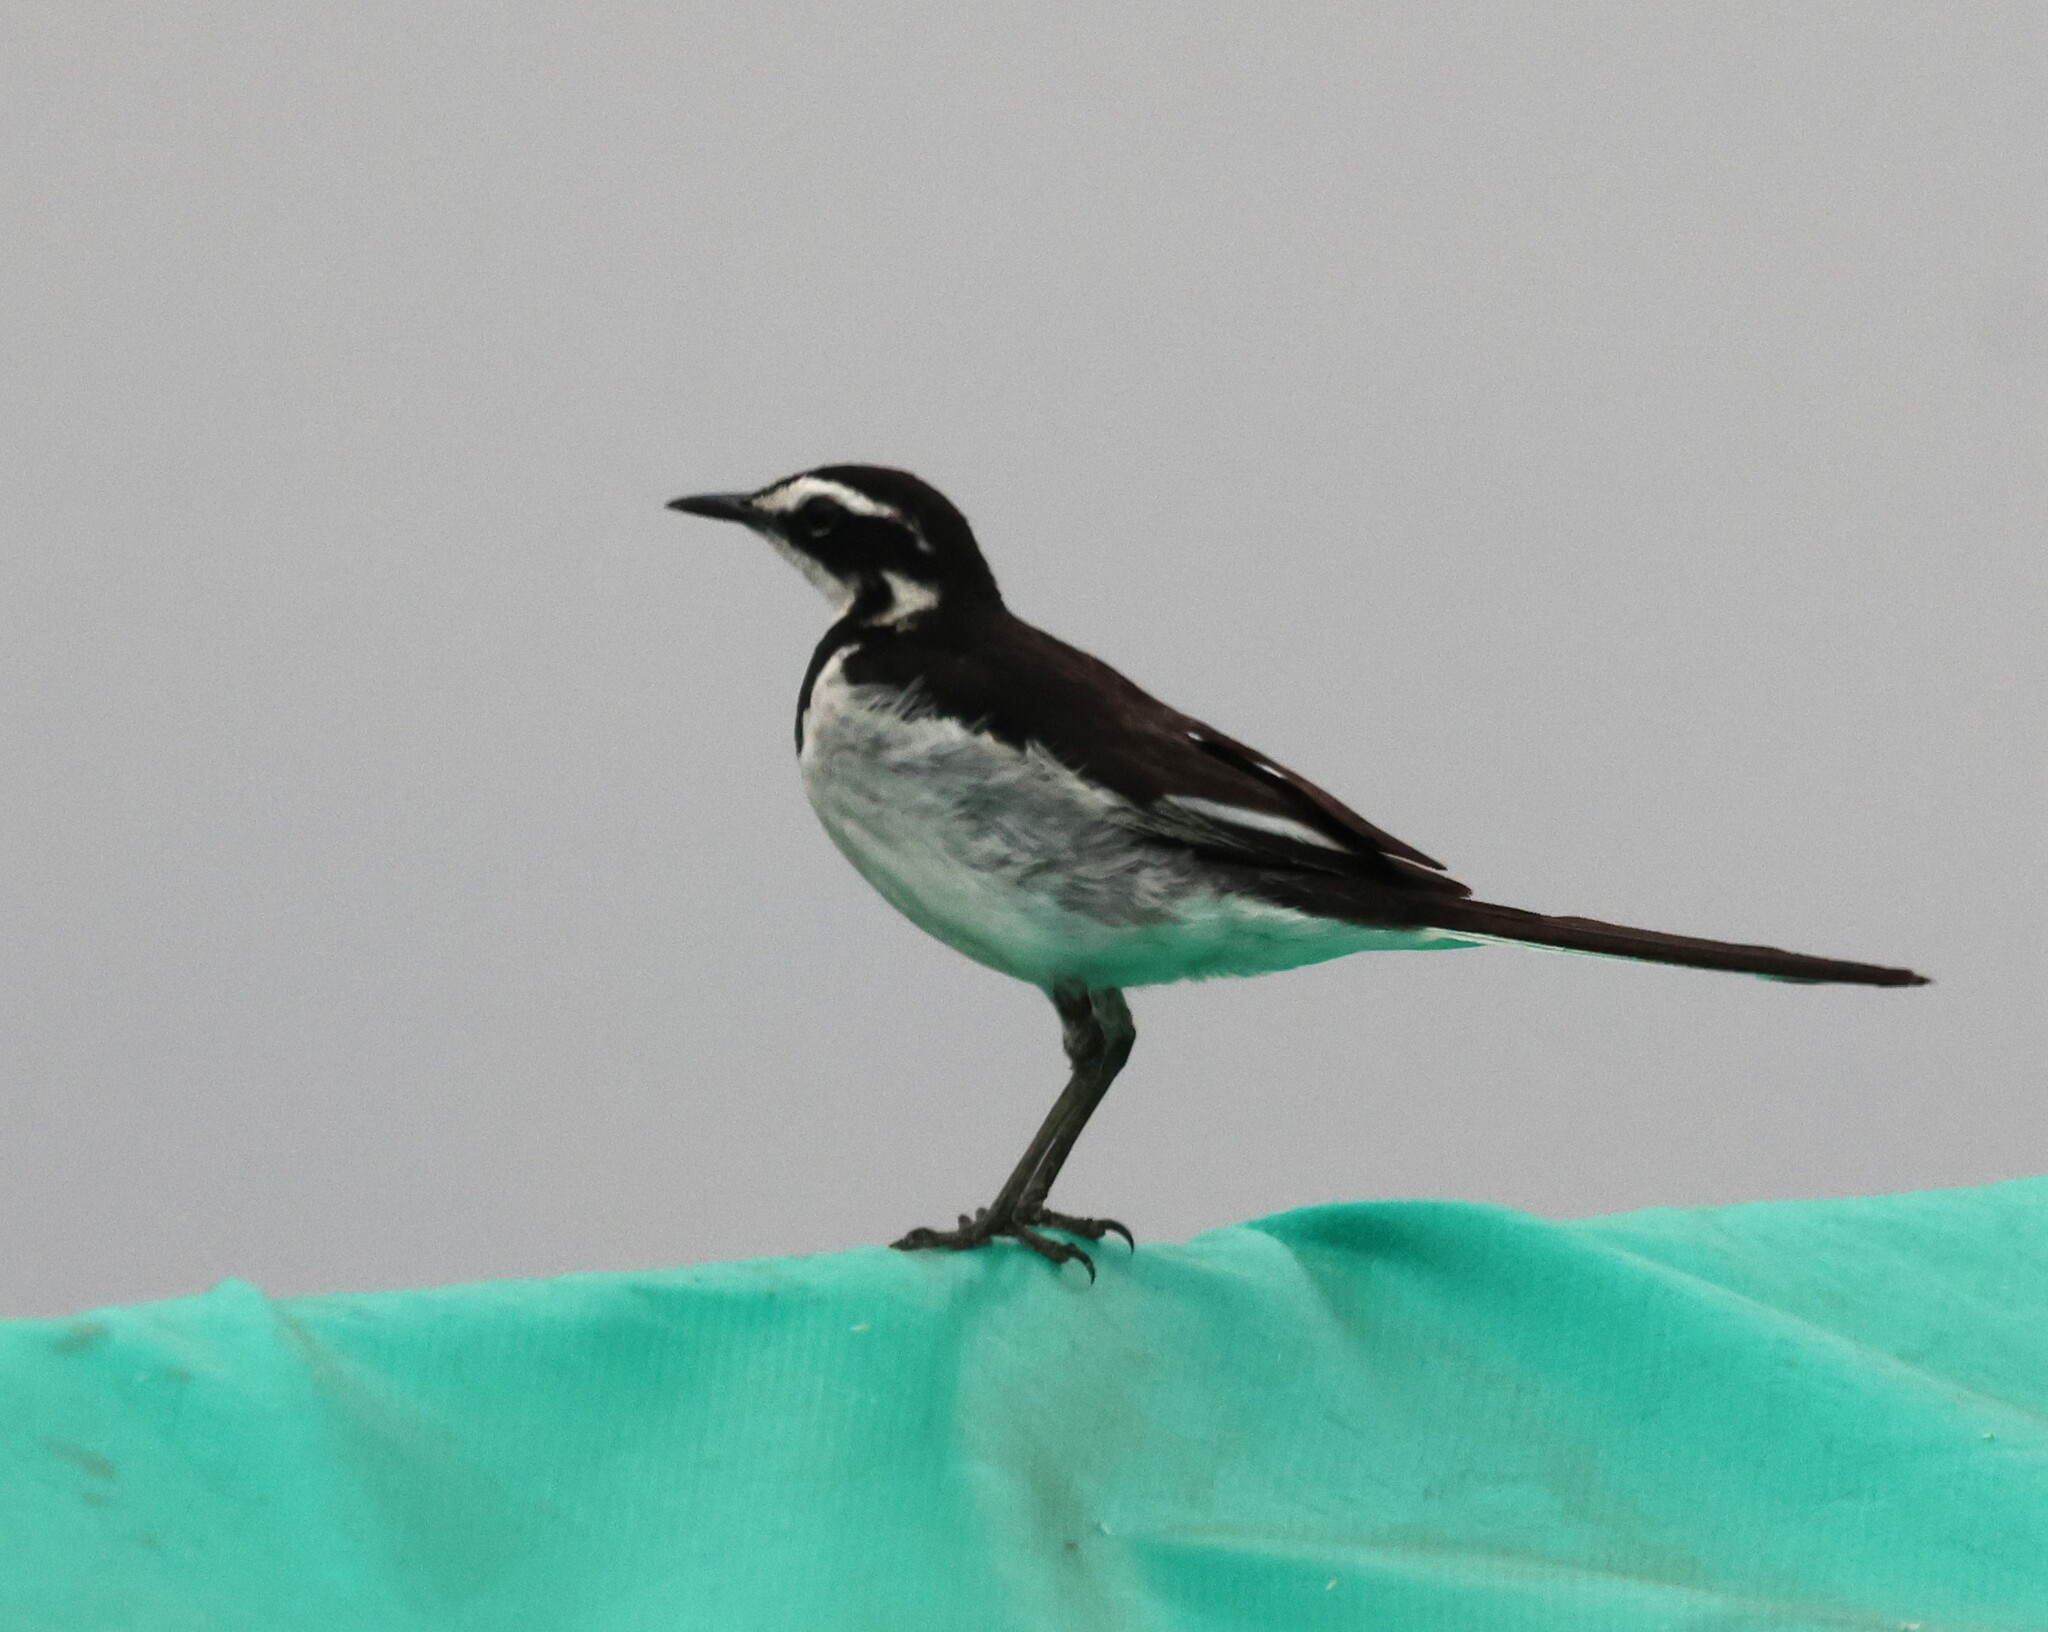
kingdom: Animalia
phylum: Chordata
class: Aves
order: Passeriformes
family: Motacillidae
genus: Motacilla
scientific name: Motacilla aguimp
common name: African pied wagtail
